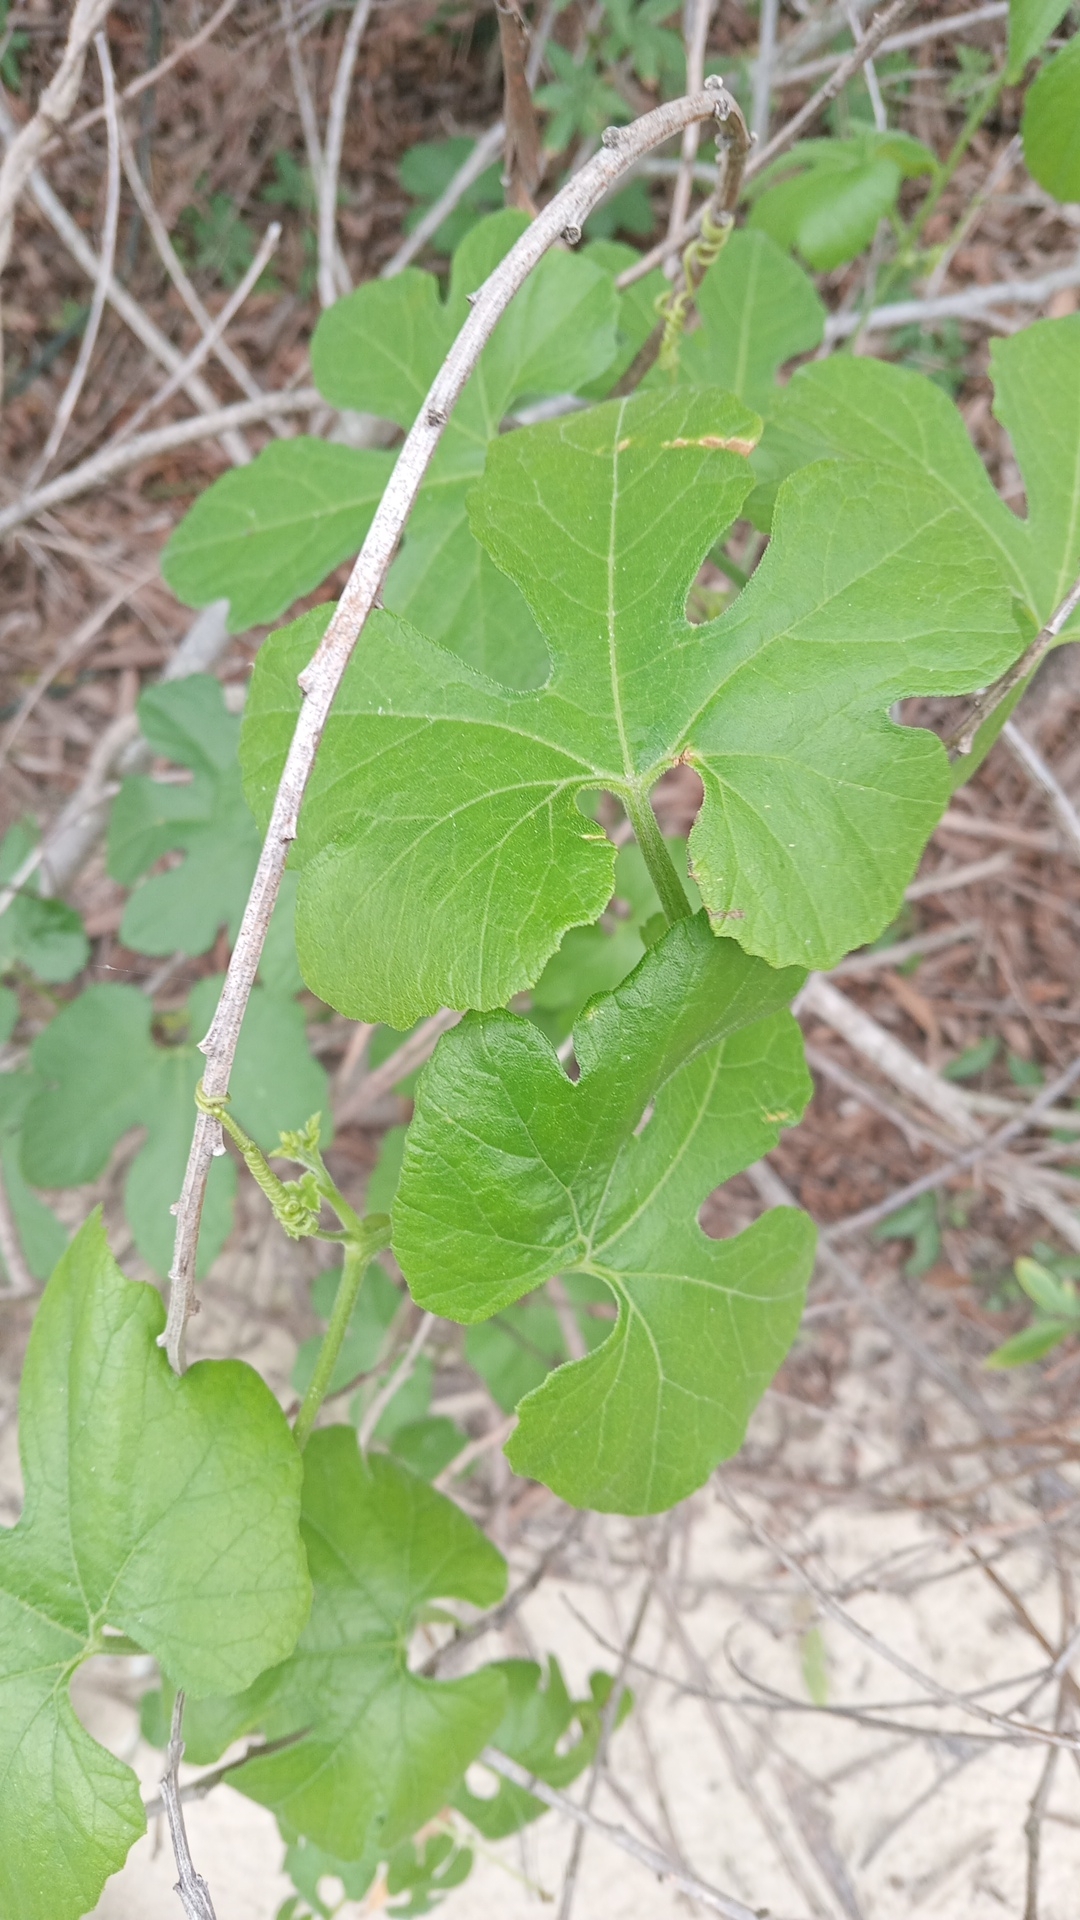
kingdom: Plantae
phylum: Tracheophyta
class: Magnoliopsida
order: Cucurbitales
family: Cucurbitaceae
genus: Cayaponia
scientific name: Cayaponia martiana
